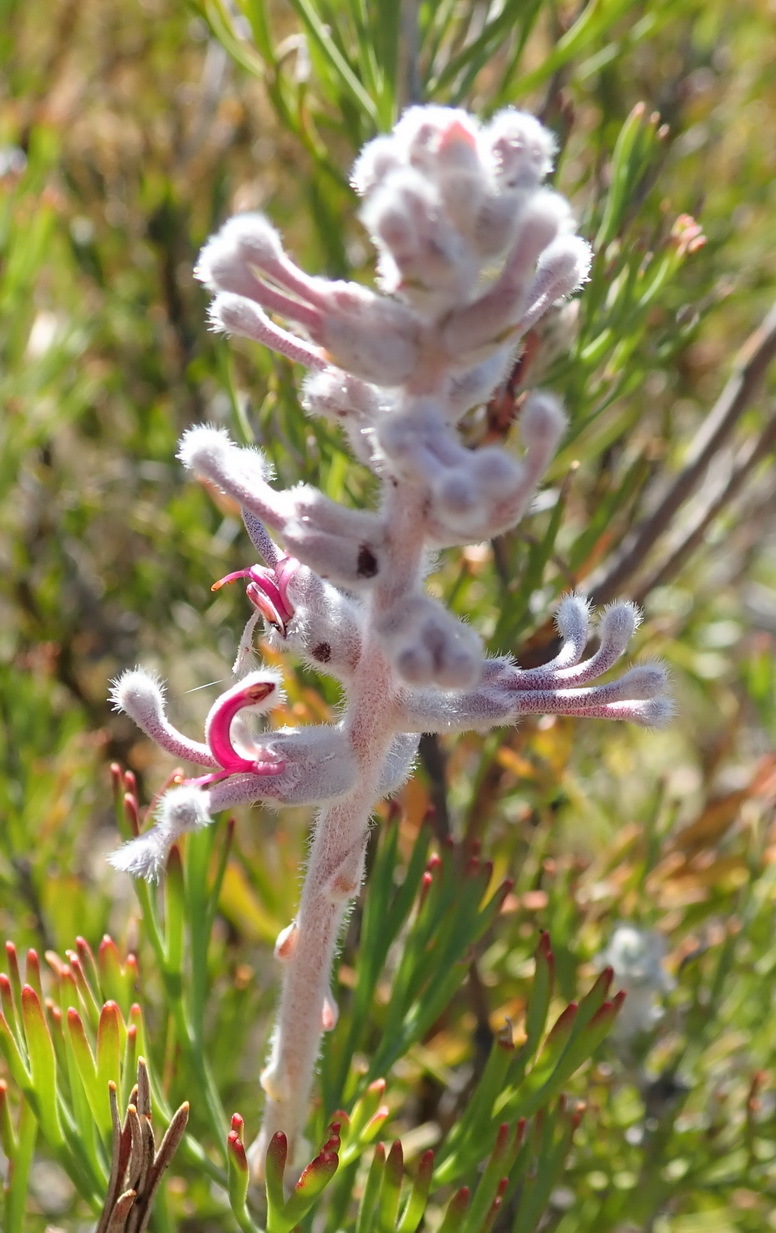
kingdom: Plantae
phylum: Tracheophyta
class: Magnoliopsida
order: Proteales
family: Proteaceae
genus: Paranomus
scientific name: Paranomus dispersus
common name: Long-head sceptre
